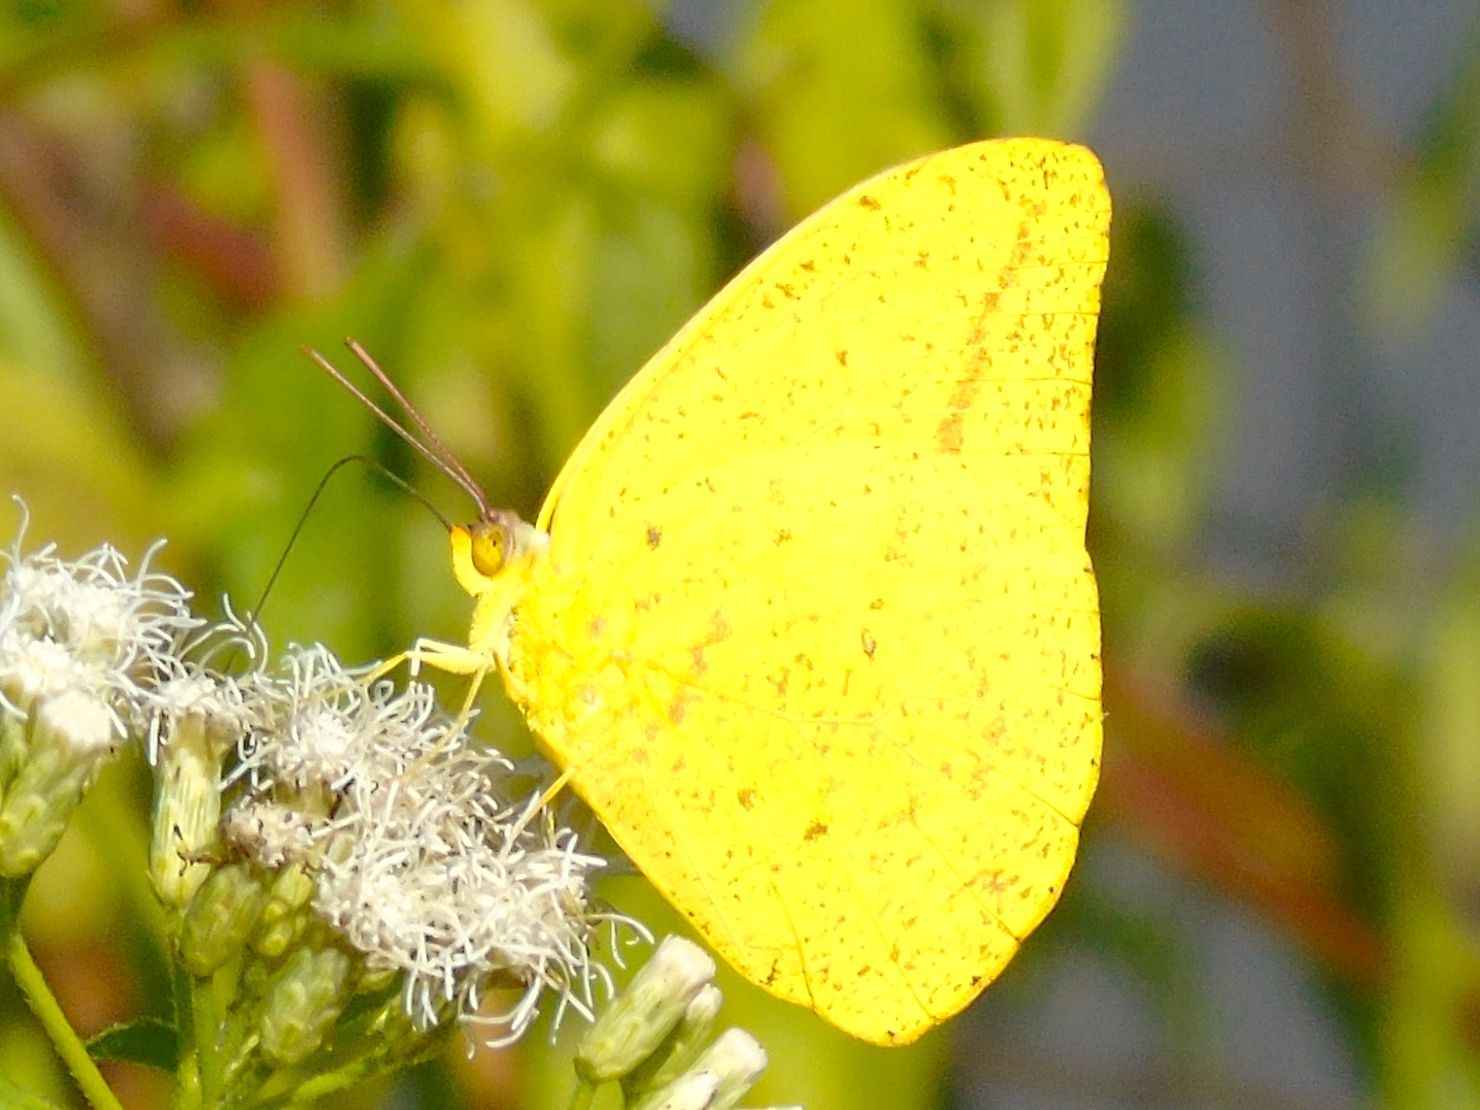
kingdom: Animalia
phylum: Arthropoda
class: Insecta
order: Lepidoptera
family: Pieridae
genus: Phoebis
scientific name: Phoebis agarithe
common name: Large orange sulphur
